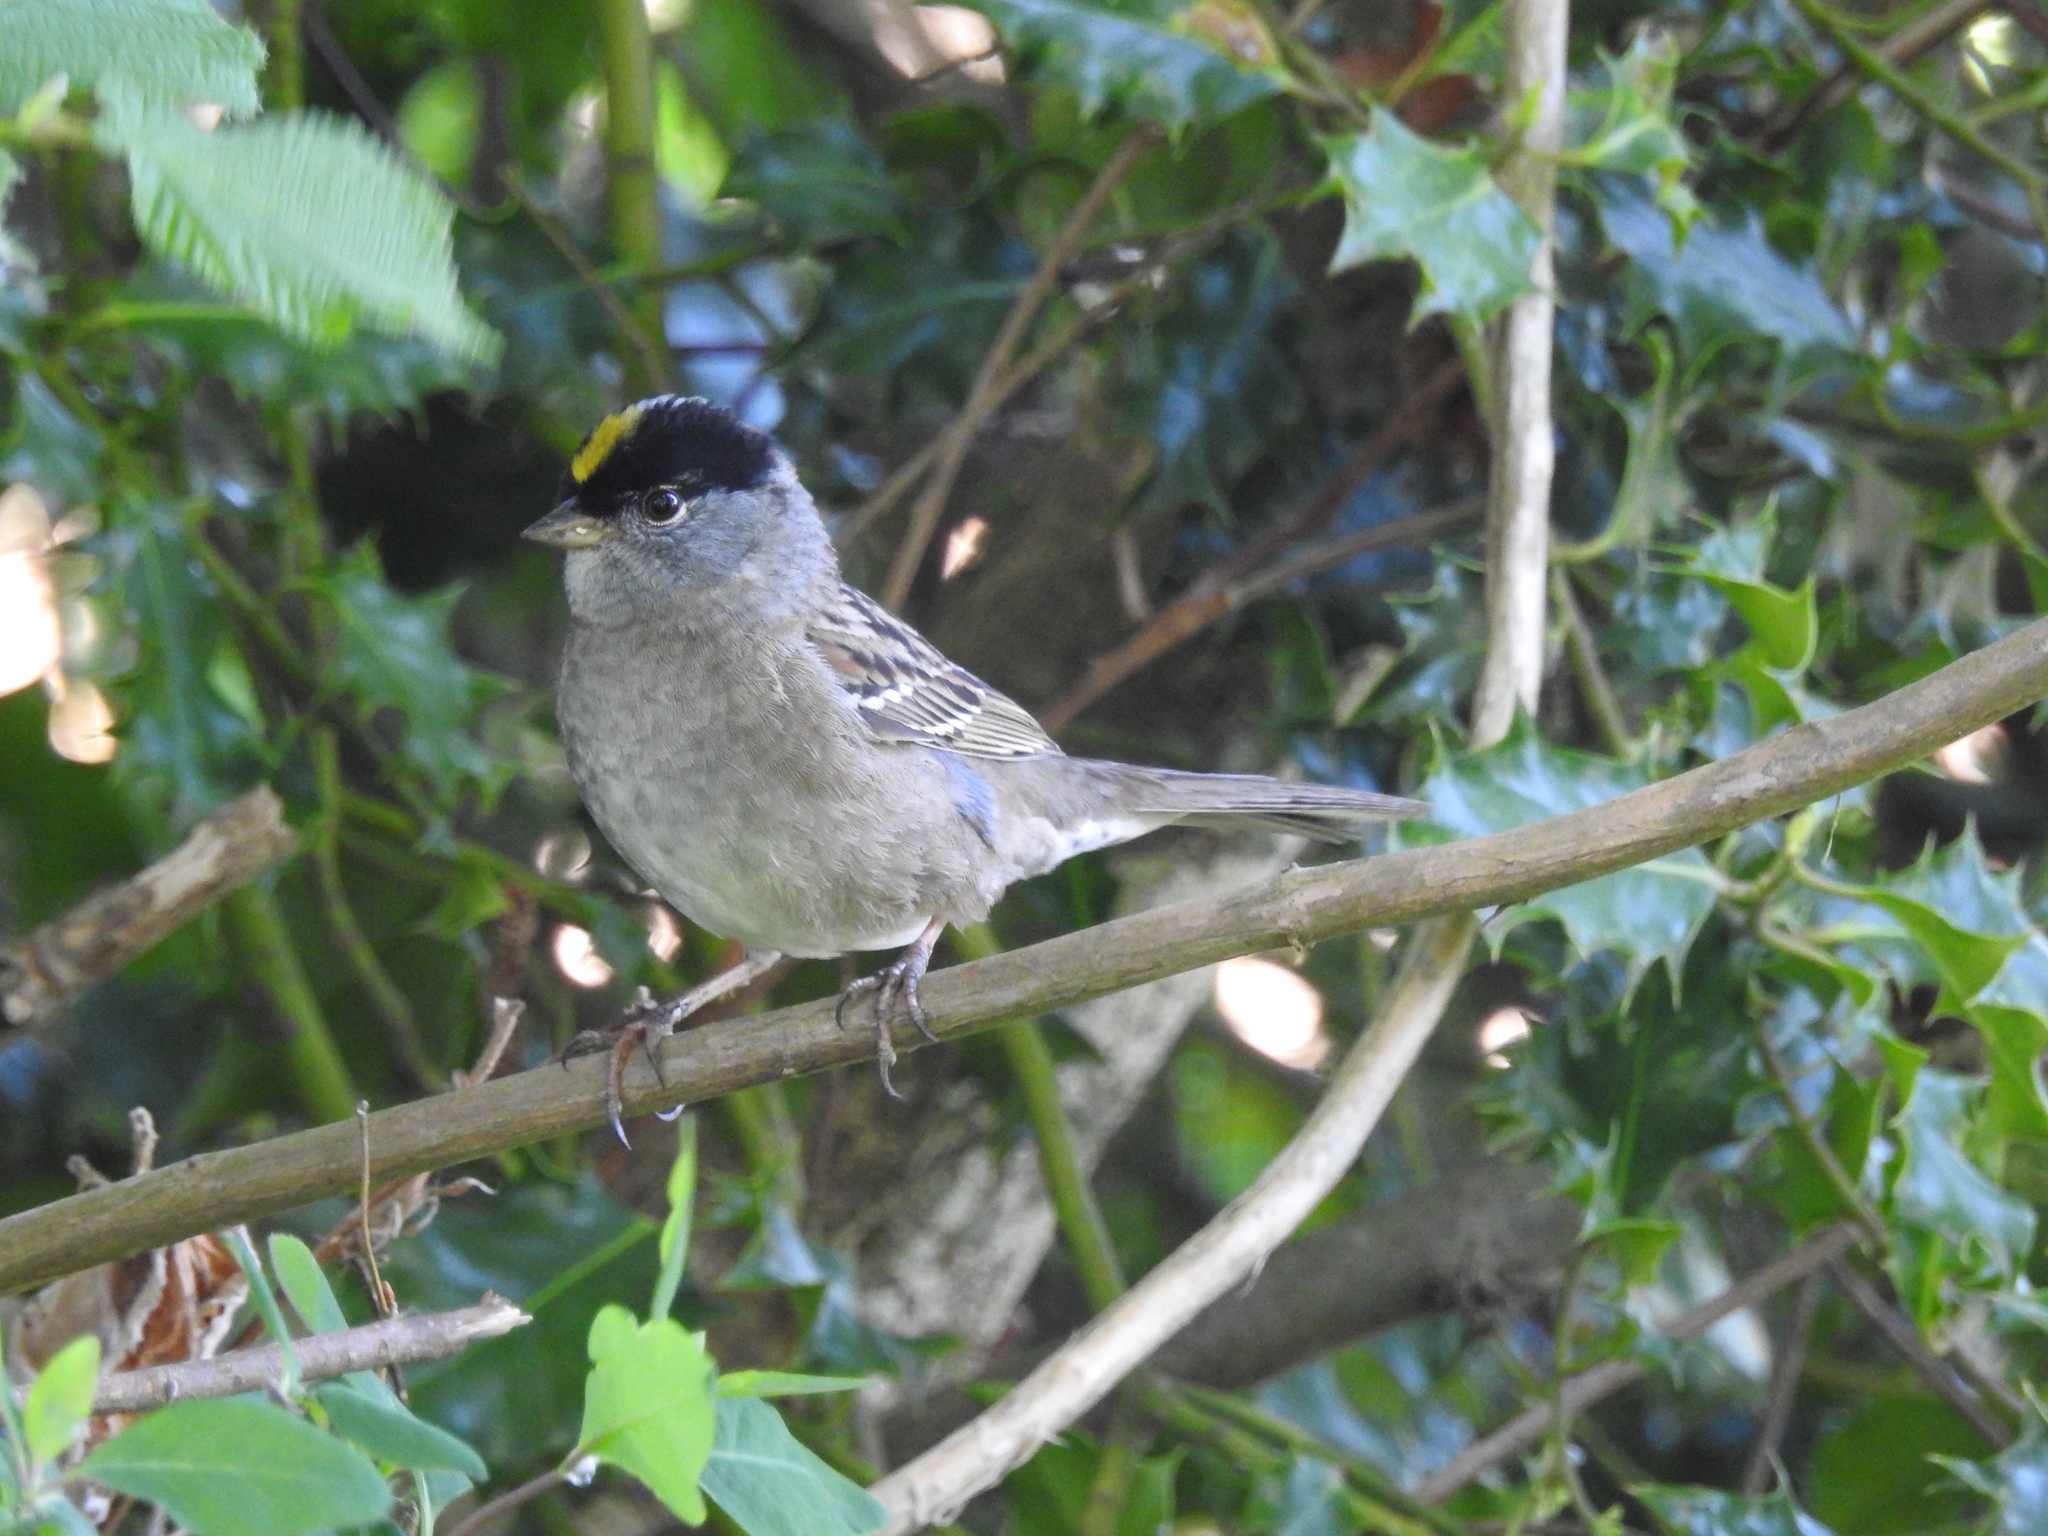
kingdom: Animalia
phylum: Chordata
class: Aves
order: Passeriformes
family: Passerellidae
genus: Zonotrichia
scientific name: Zonotrichia atricapilla
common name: Golden-crowned sparrow
